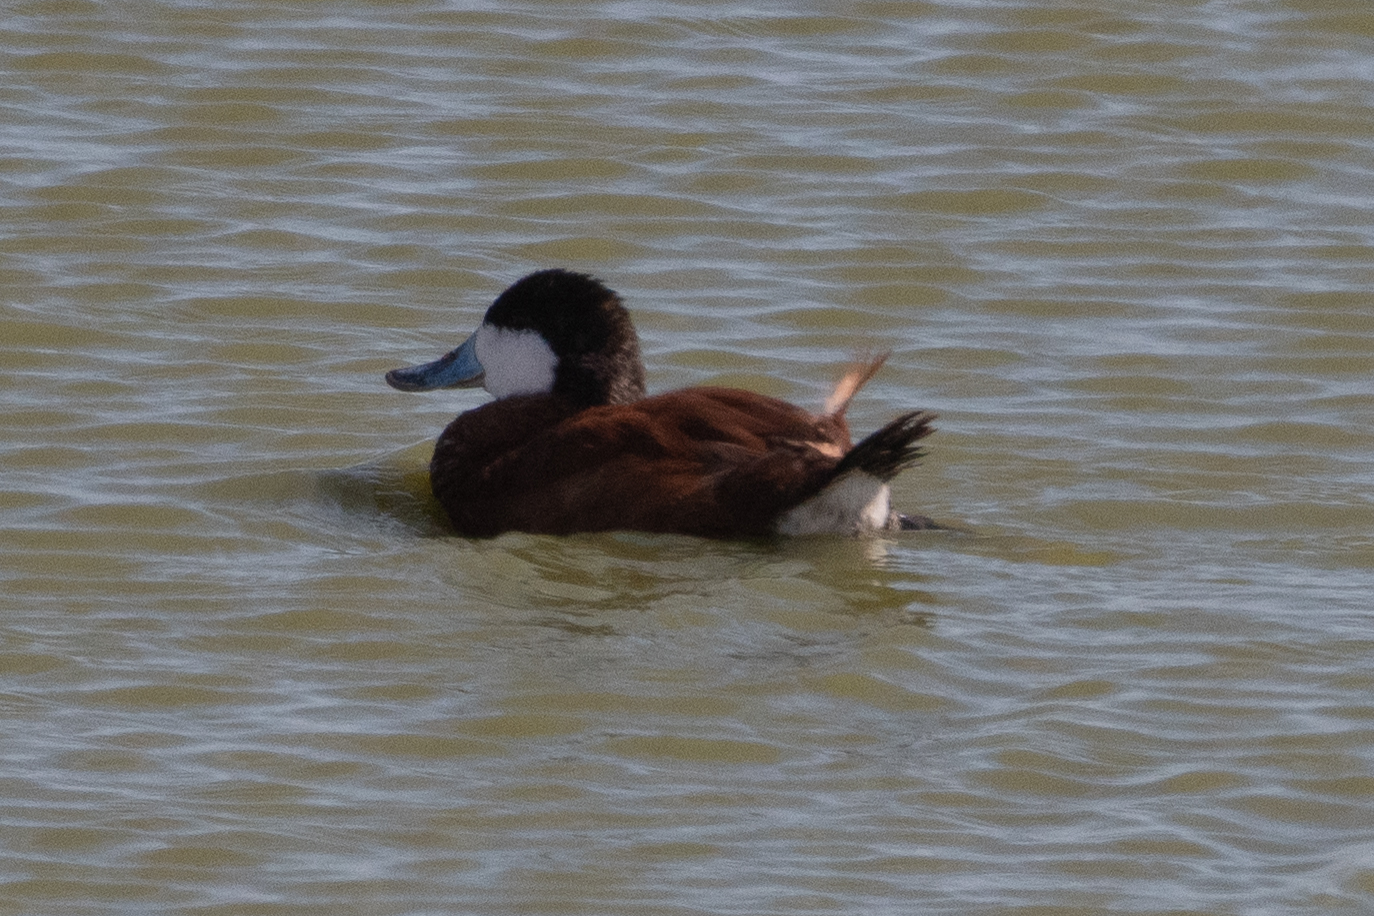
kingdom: Animalia
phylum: Chordata
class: Aves
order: Anseriformes
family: Anatidae
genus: Oxyura
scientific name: Oxyura jamaicensis
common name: Ruddy duck
